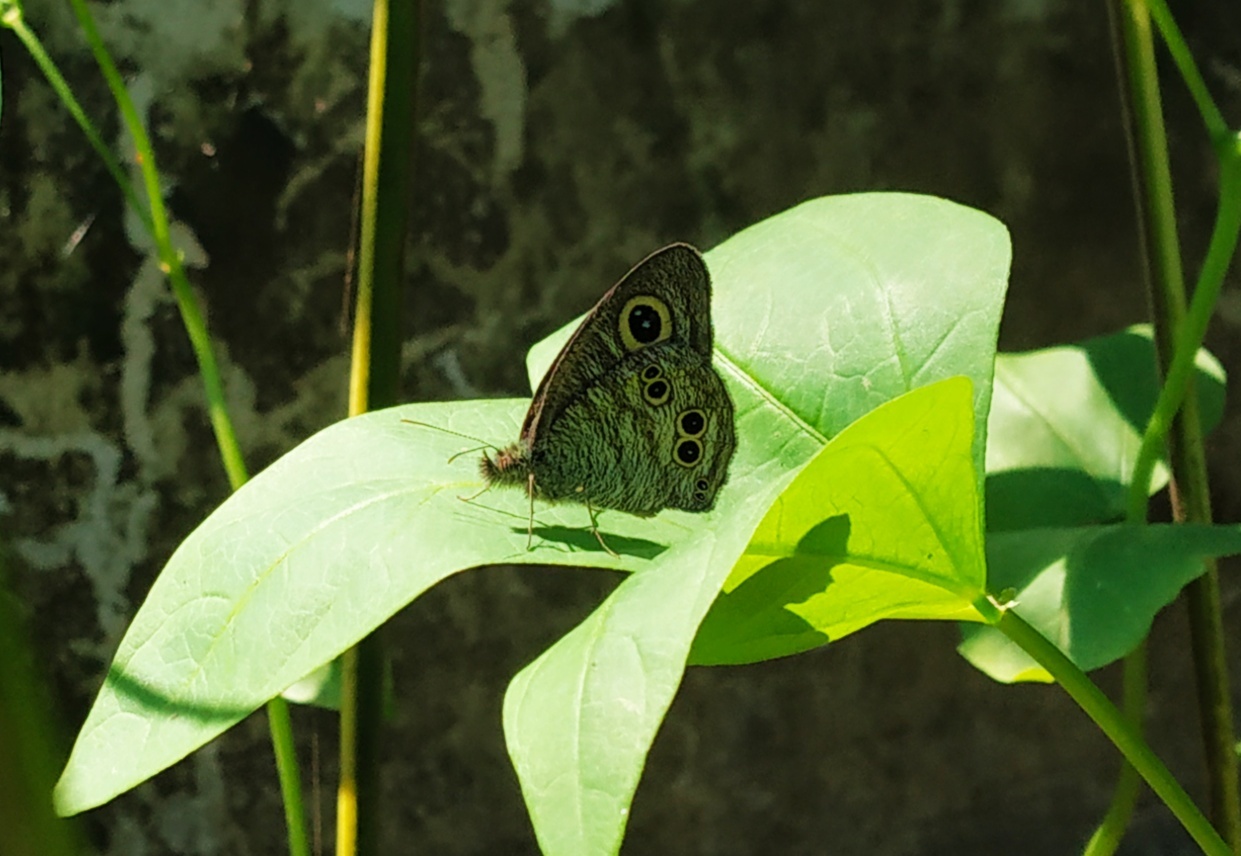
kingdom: Animalia
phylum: Arthropoda
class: Insecta
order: Lepidoptera
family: Nymphalidae
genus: Ypthima
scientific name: Ypthima baldus
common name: Common five-ring
